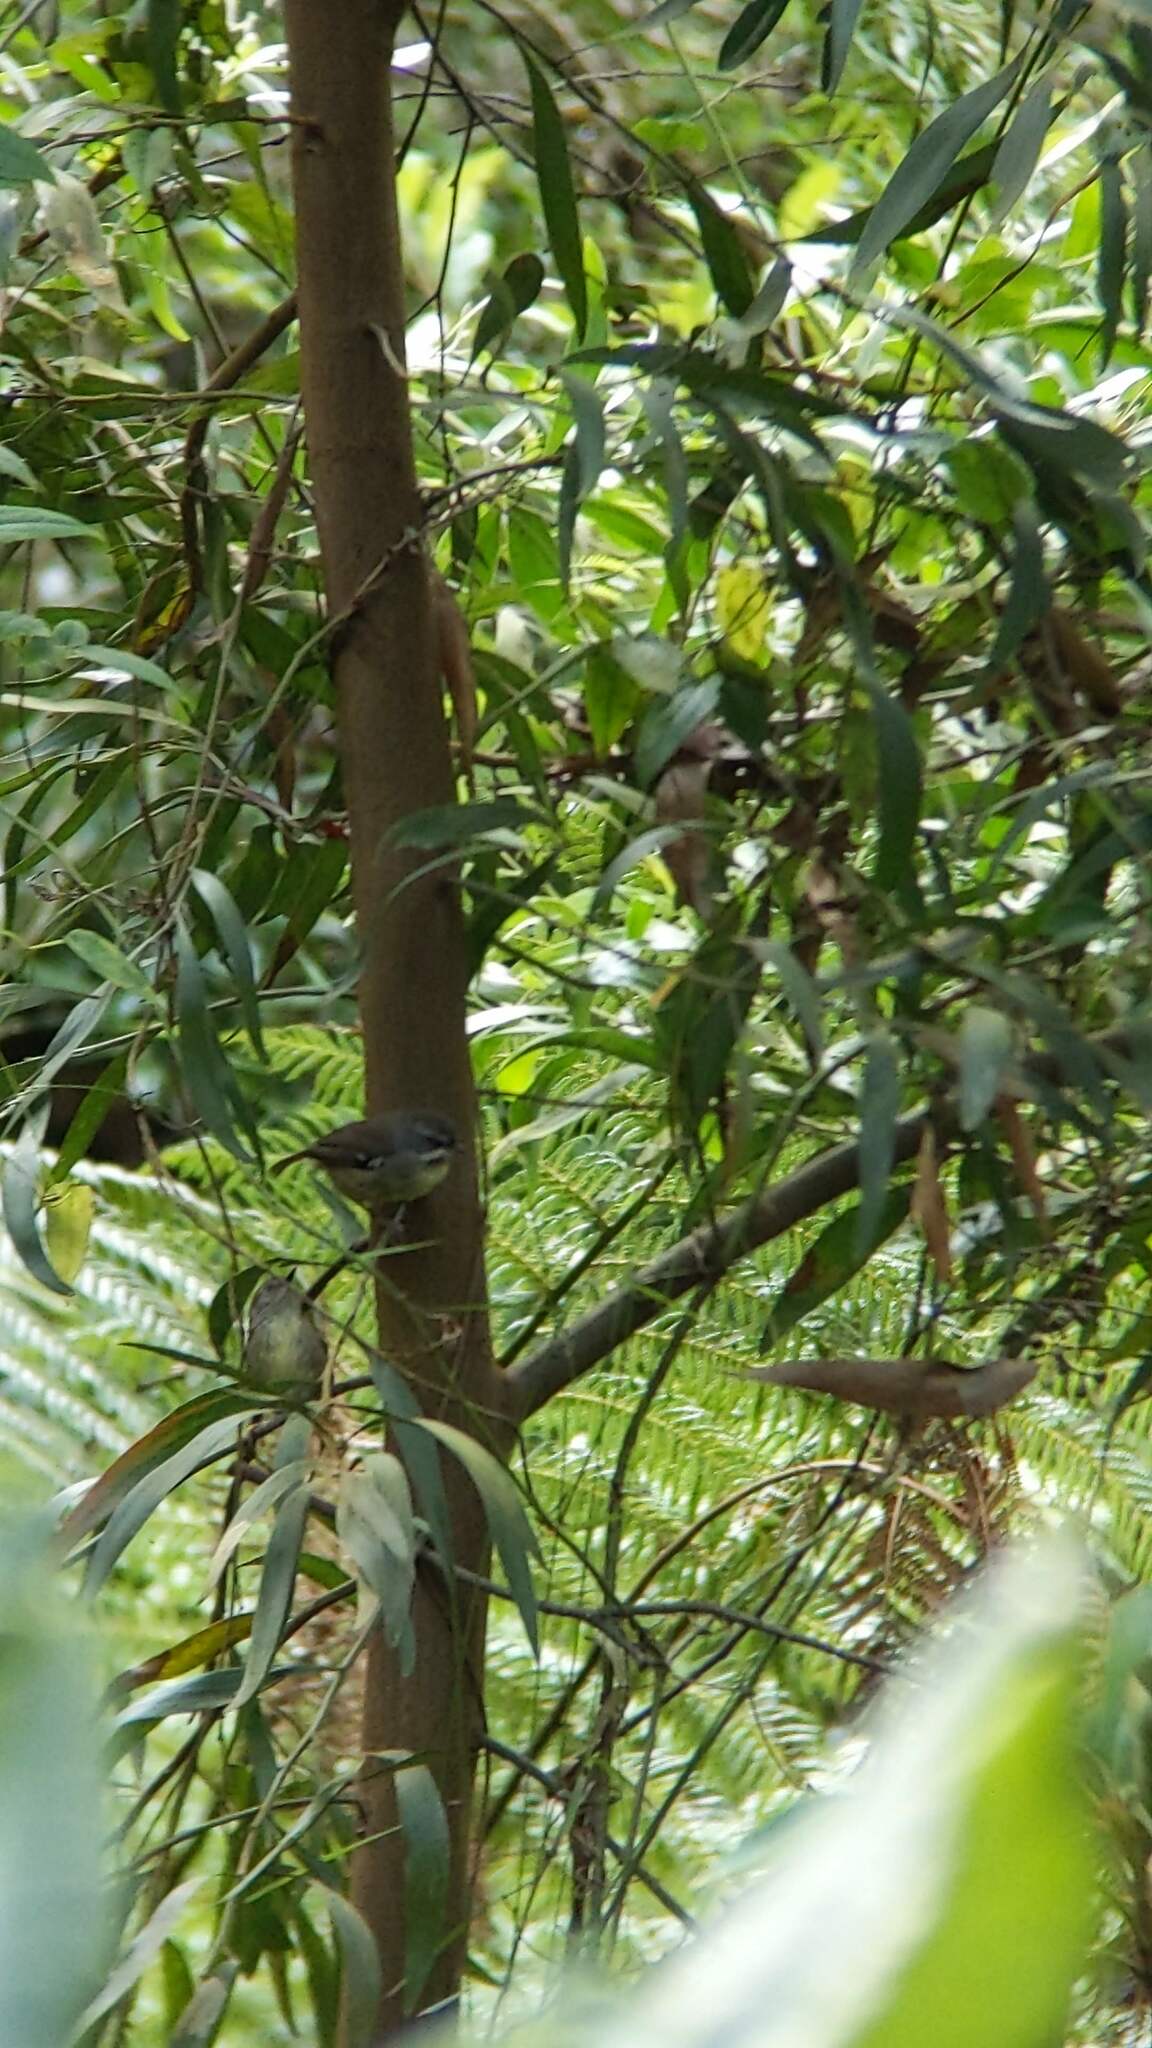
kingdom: Animalia
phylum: Chordata
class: Aves
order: Passeriformes
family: Acanthizidae
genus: Sericornis
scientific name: Sericornis frontalis
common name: White-browed scrubwren
